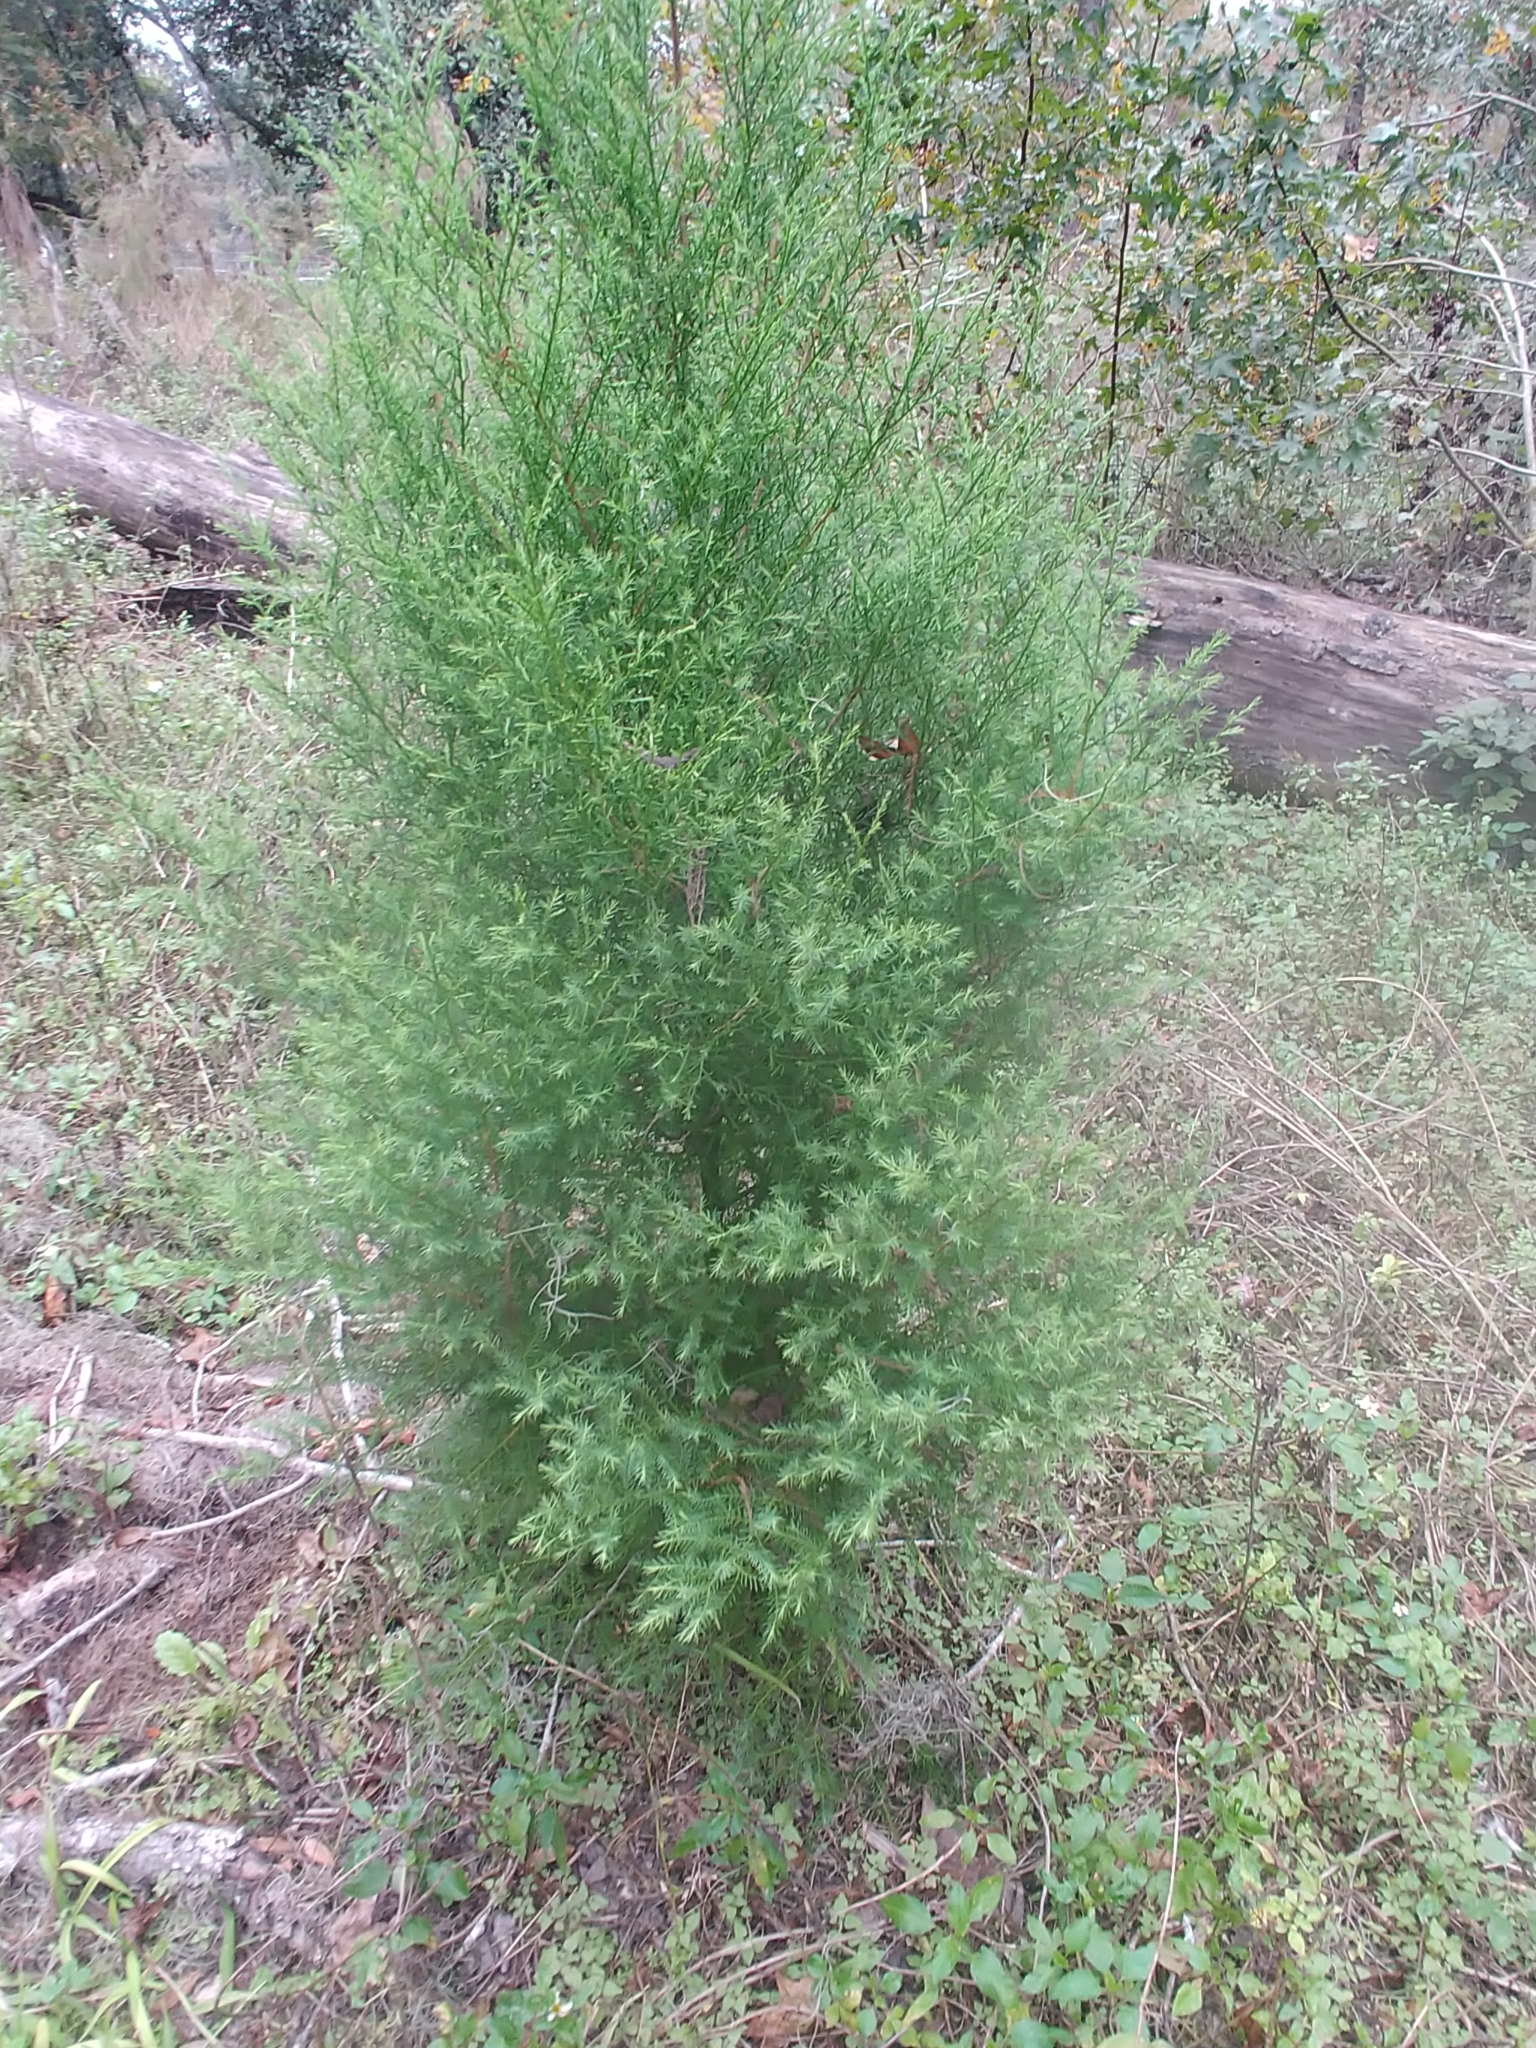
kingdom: Plantae
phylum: Tracheophyta
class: Pinopsida
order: Pinales
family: Cupressaceae
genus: Juniperus
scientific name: Juniperus virginiana
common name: Red juniper
